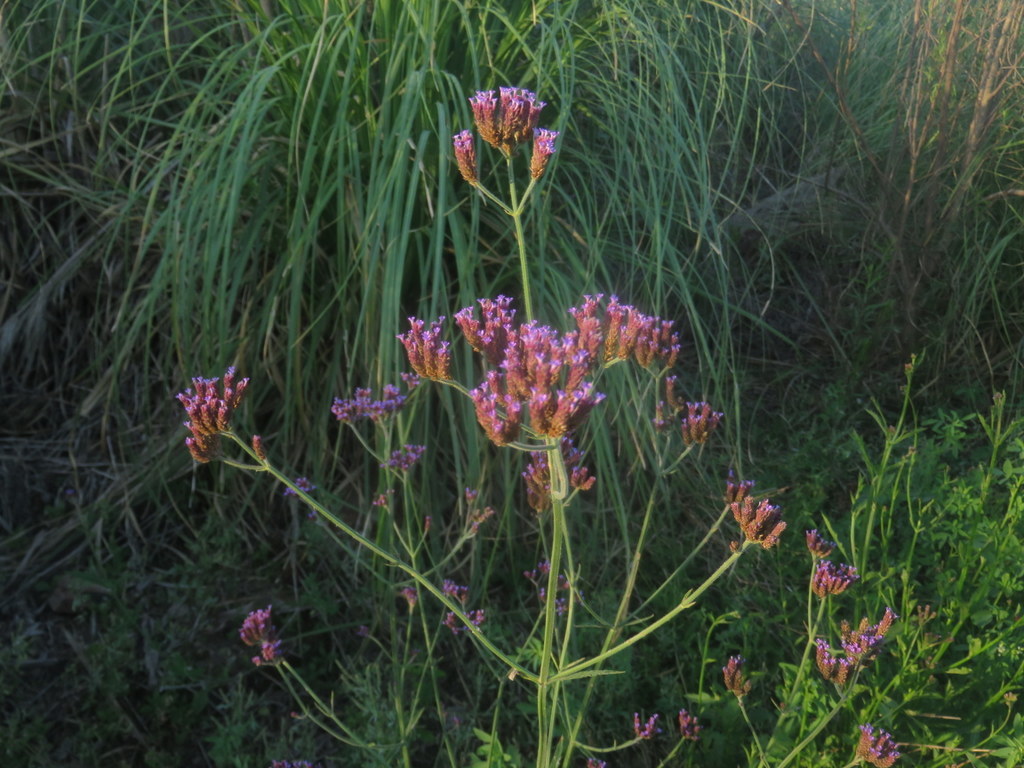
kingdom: Plantae
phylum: Tracheophyta
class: Magnoliopsida
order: Lamiales
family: Verbenaceae
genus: Verbena
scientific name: Verbena bonariensis
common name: Purpletop vervain
